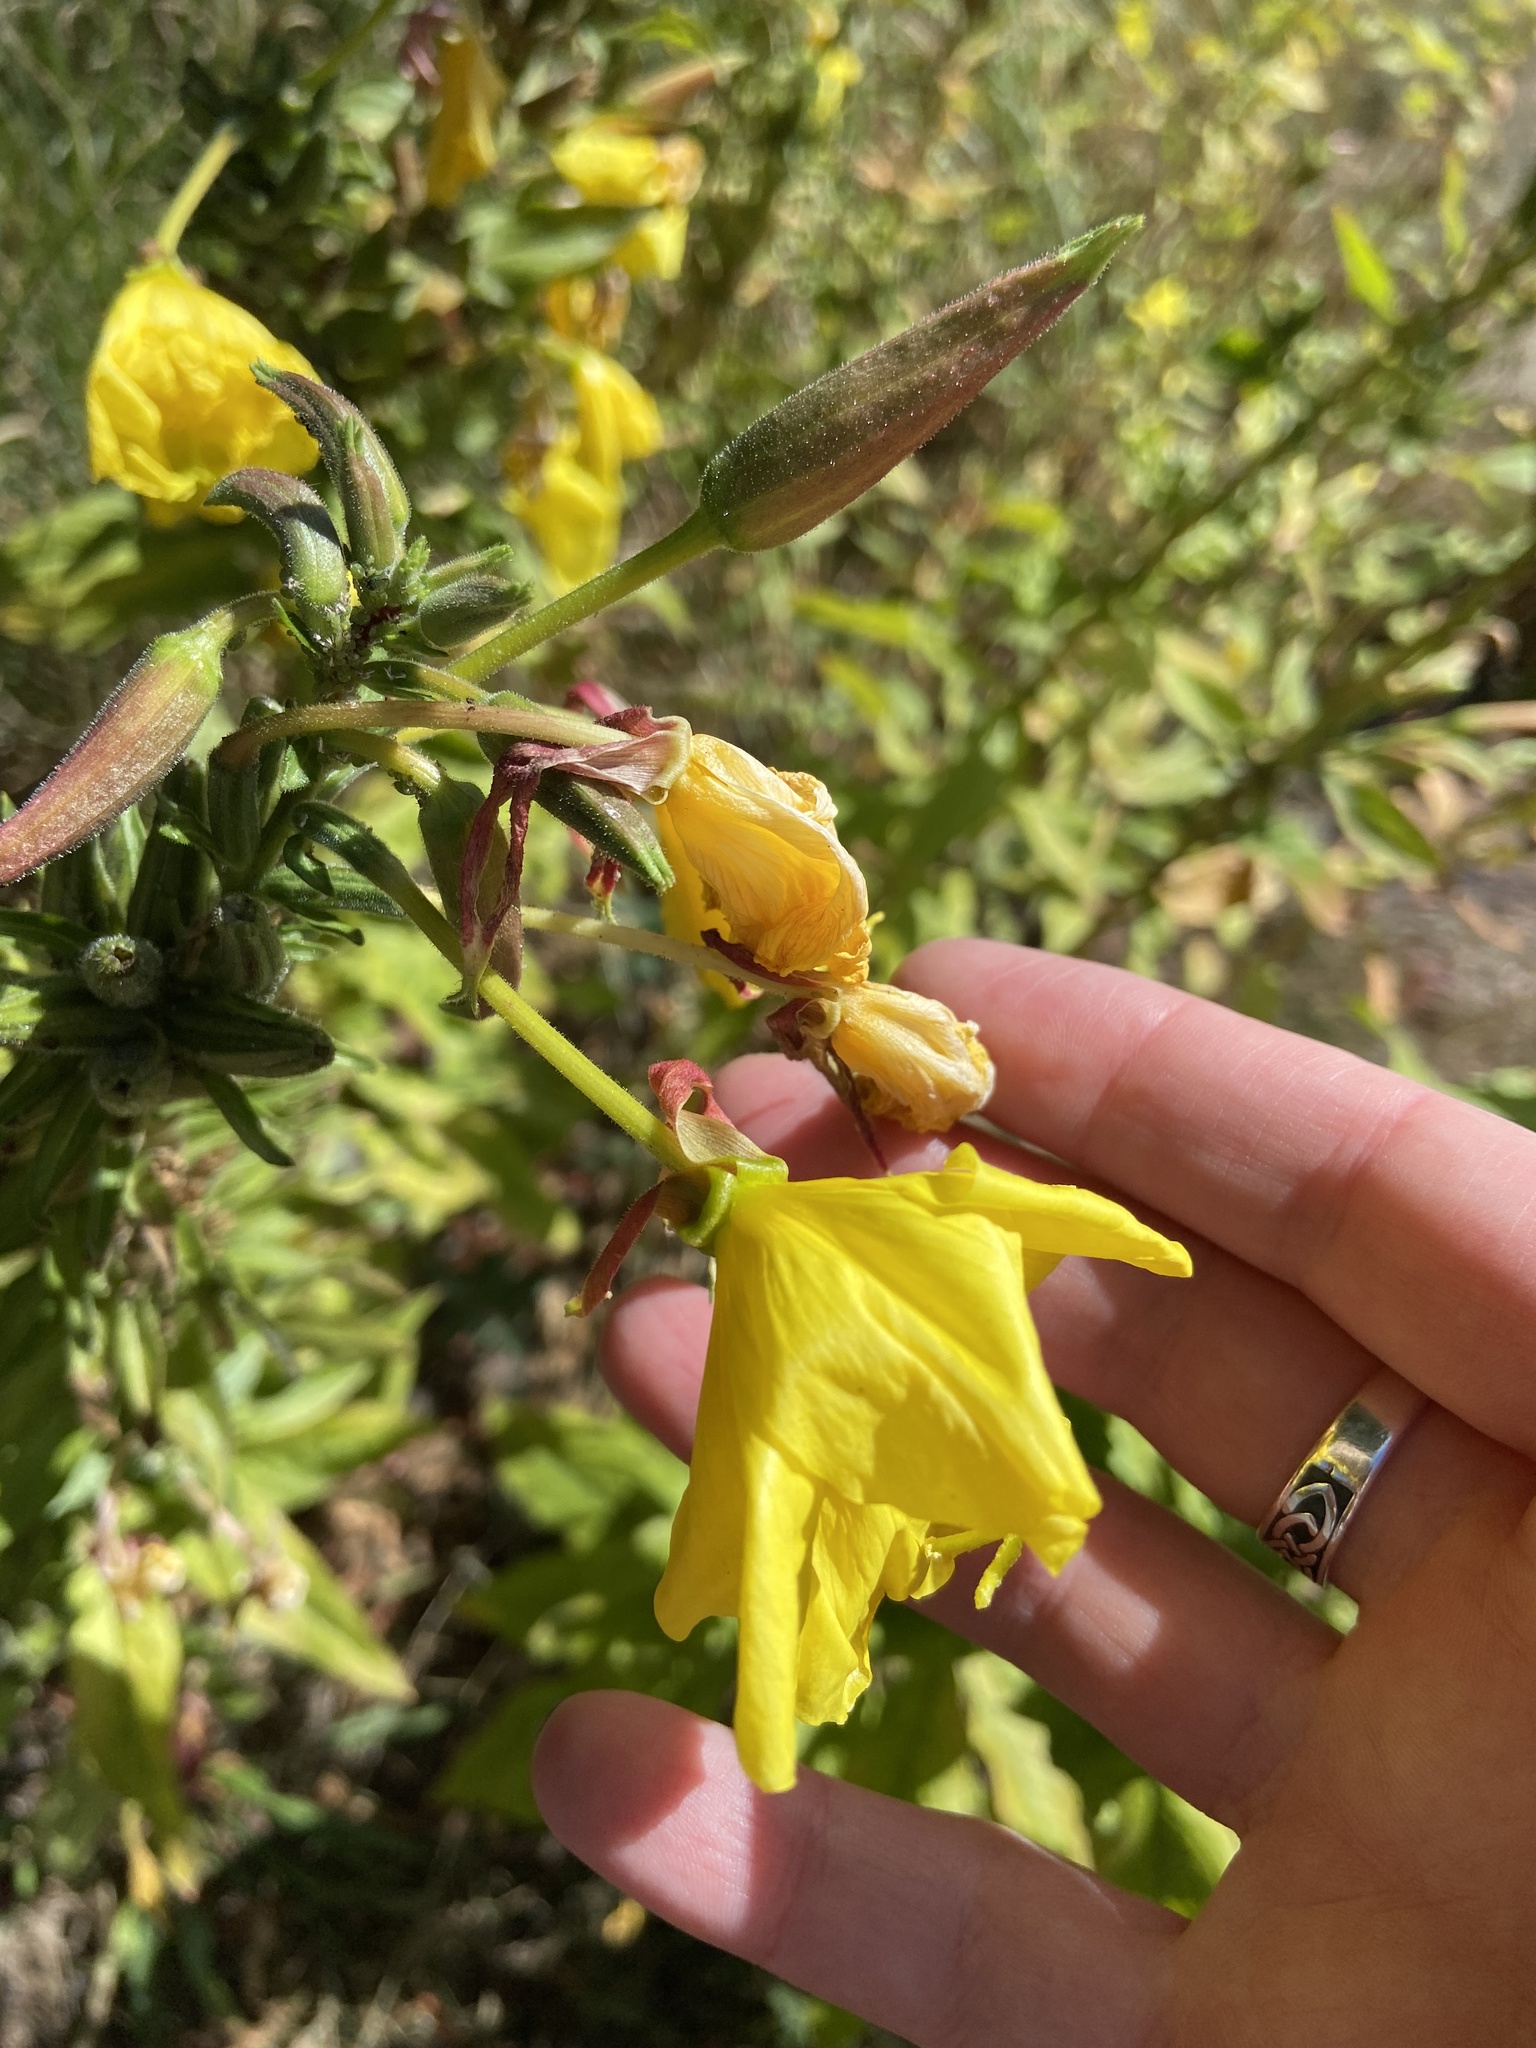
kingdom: Plantae
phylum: Tracheophyta
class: Magnoliopsida
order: Myrtales
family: Onagraceae
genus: Oenothera
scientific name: Oenothera glazioviana
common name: Large-flowered evening-primrose
